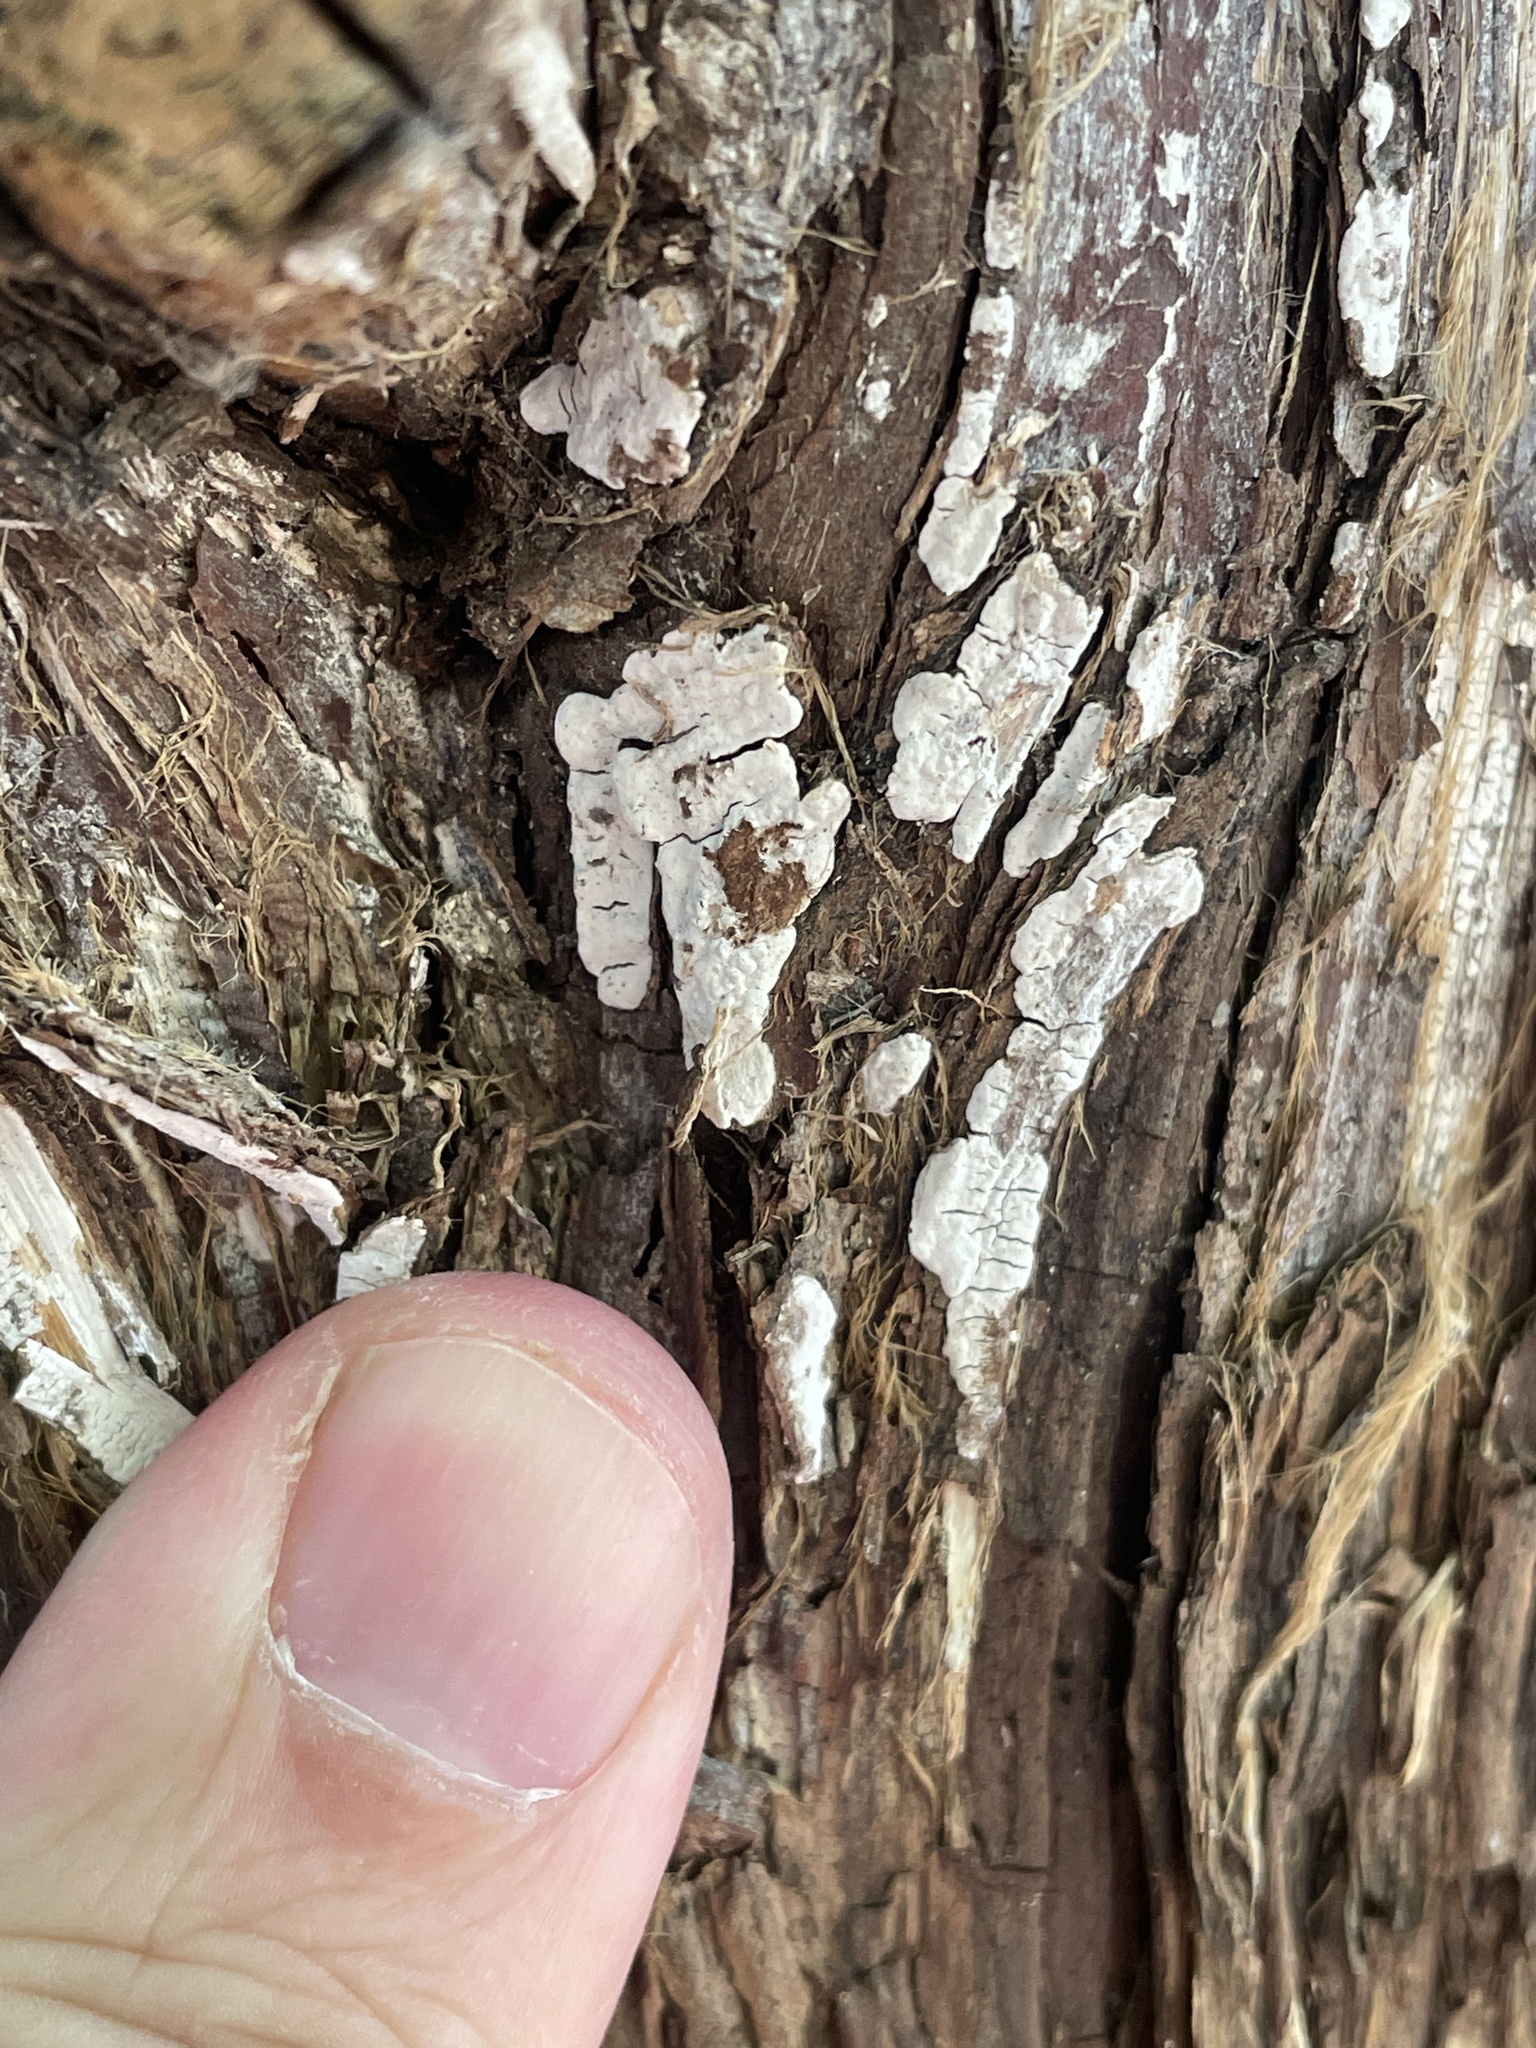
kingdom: Fungi
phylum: Basidiomycota
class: Agaricomycetes
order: Agaricales
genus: Dendrothele
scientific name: Dendrothele nivosa
